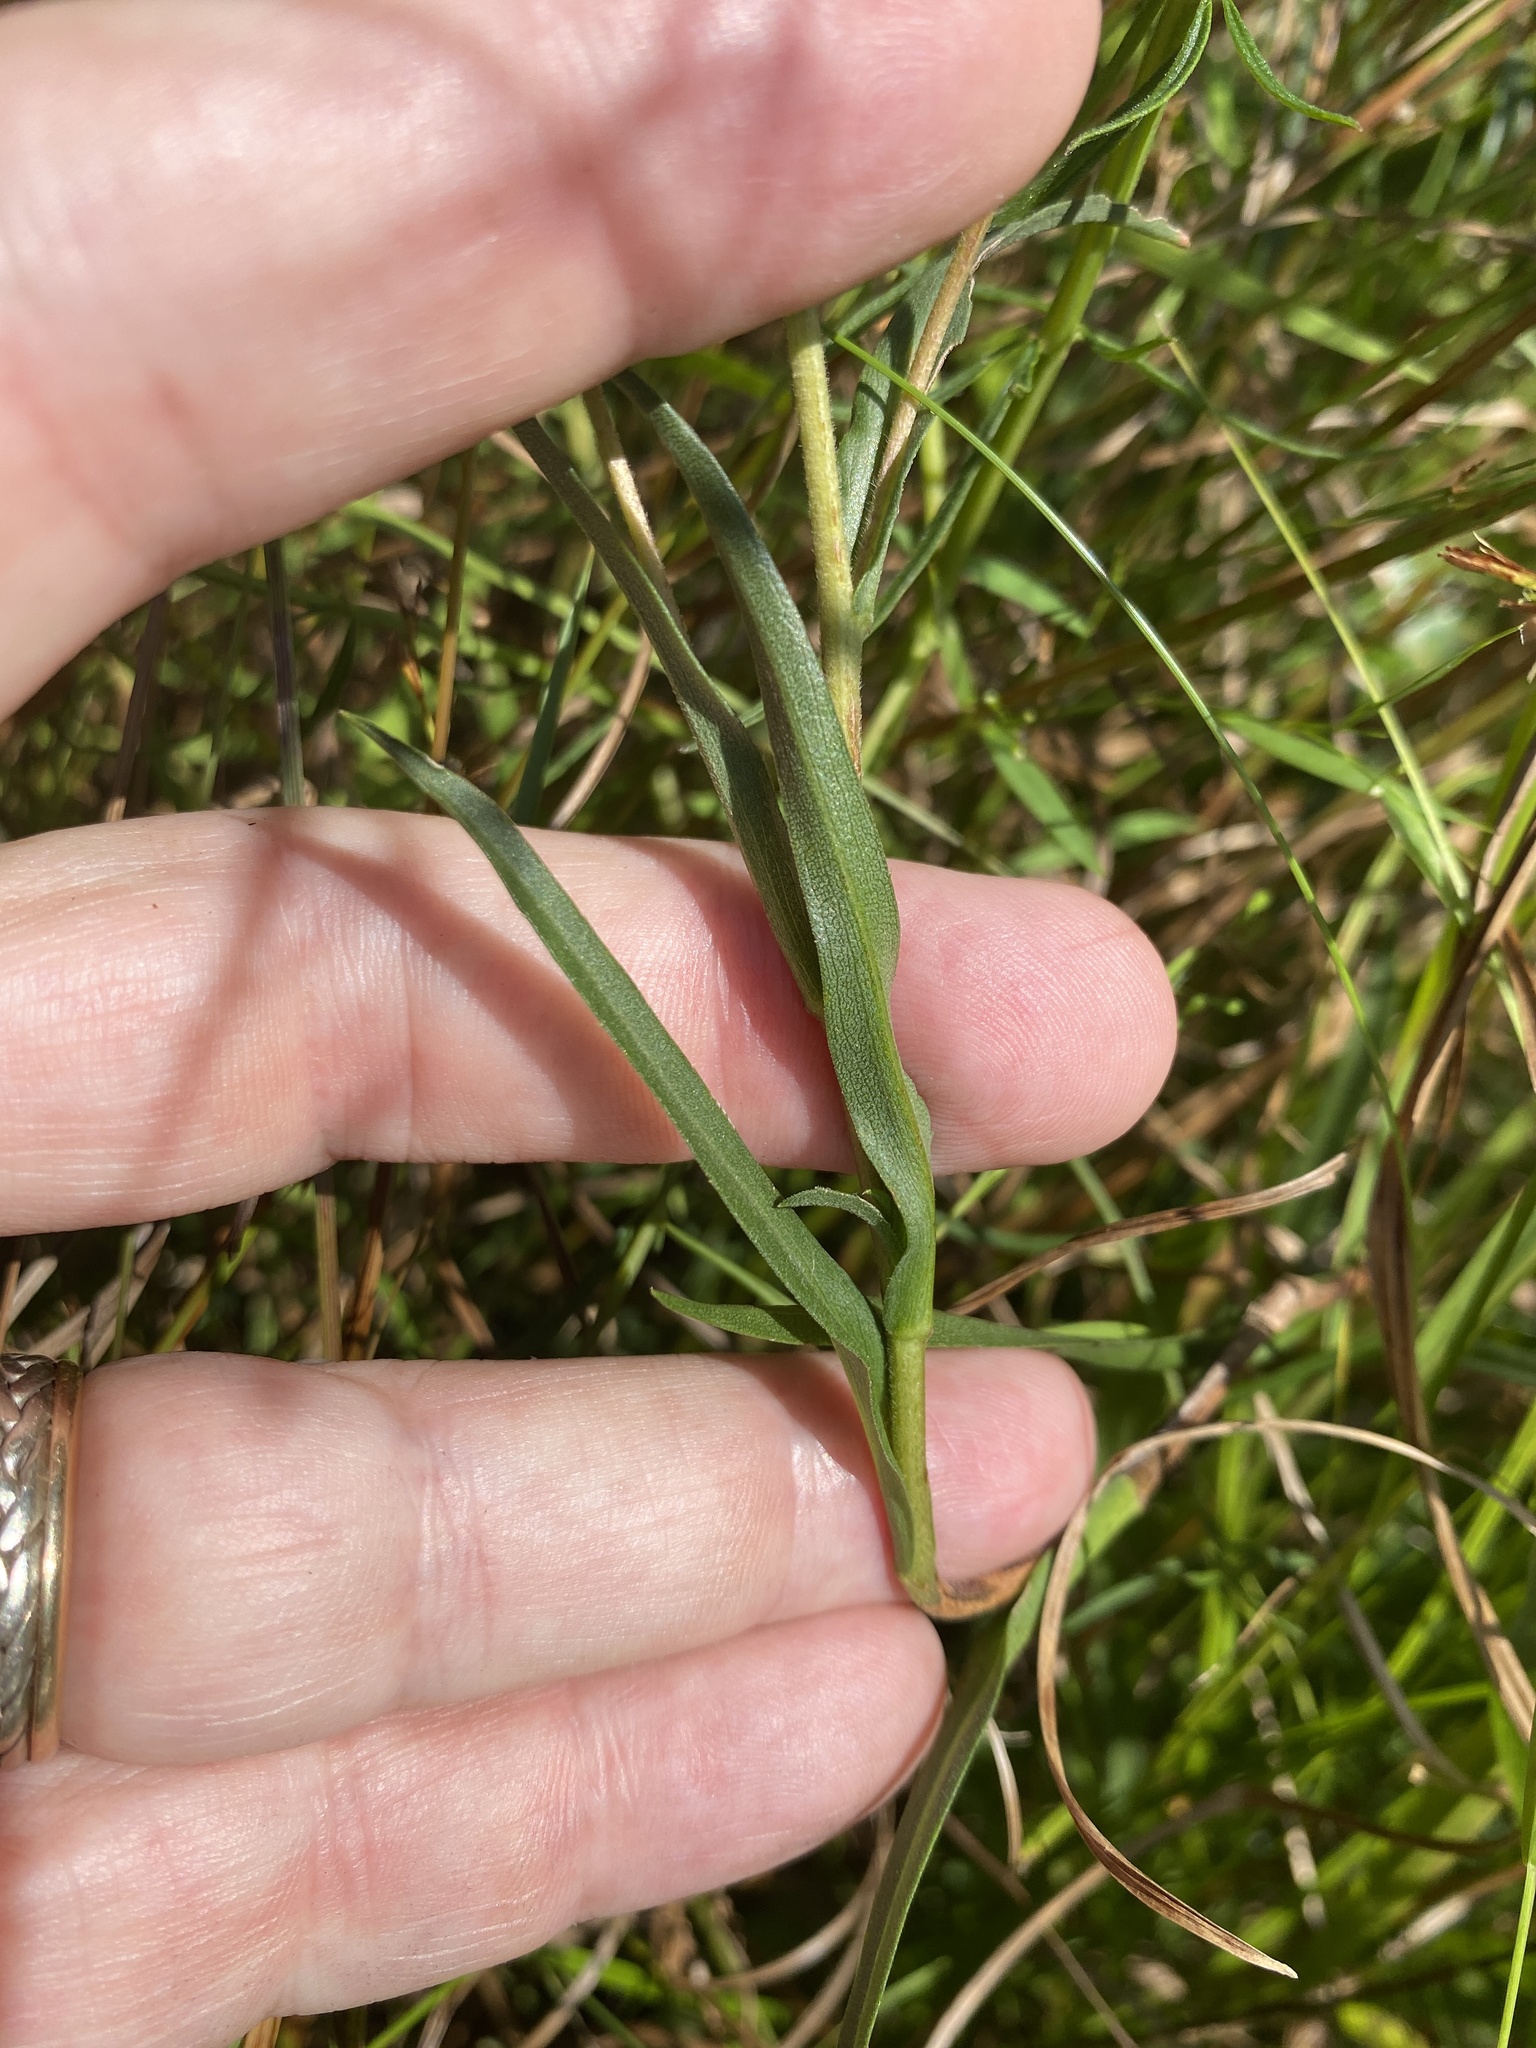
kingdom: Plantae
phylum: Tracheophyta
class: Magnoliopsida
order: Asterales
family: Asteraceae
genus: Eurybia
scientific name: Eurybia paludosa
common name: Southern swamp aster
